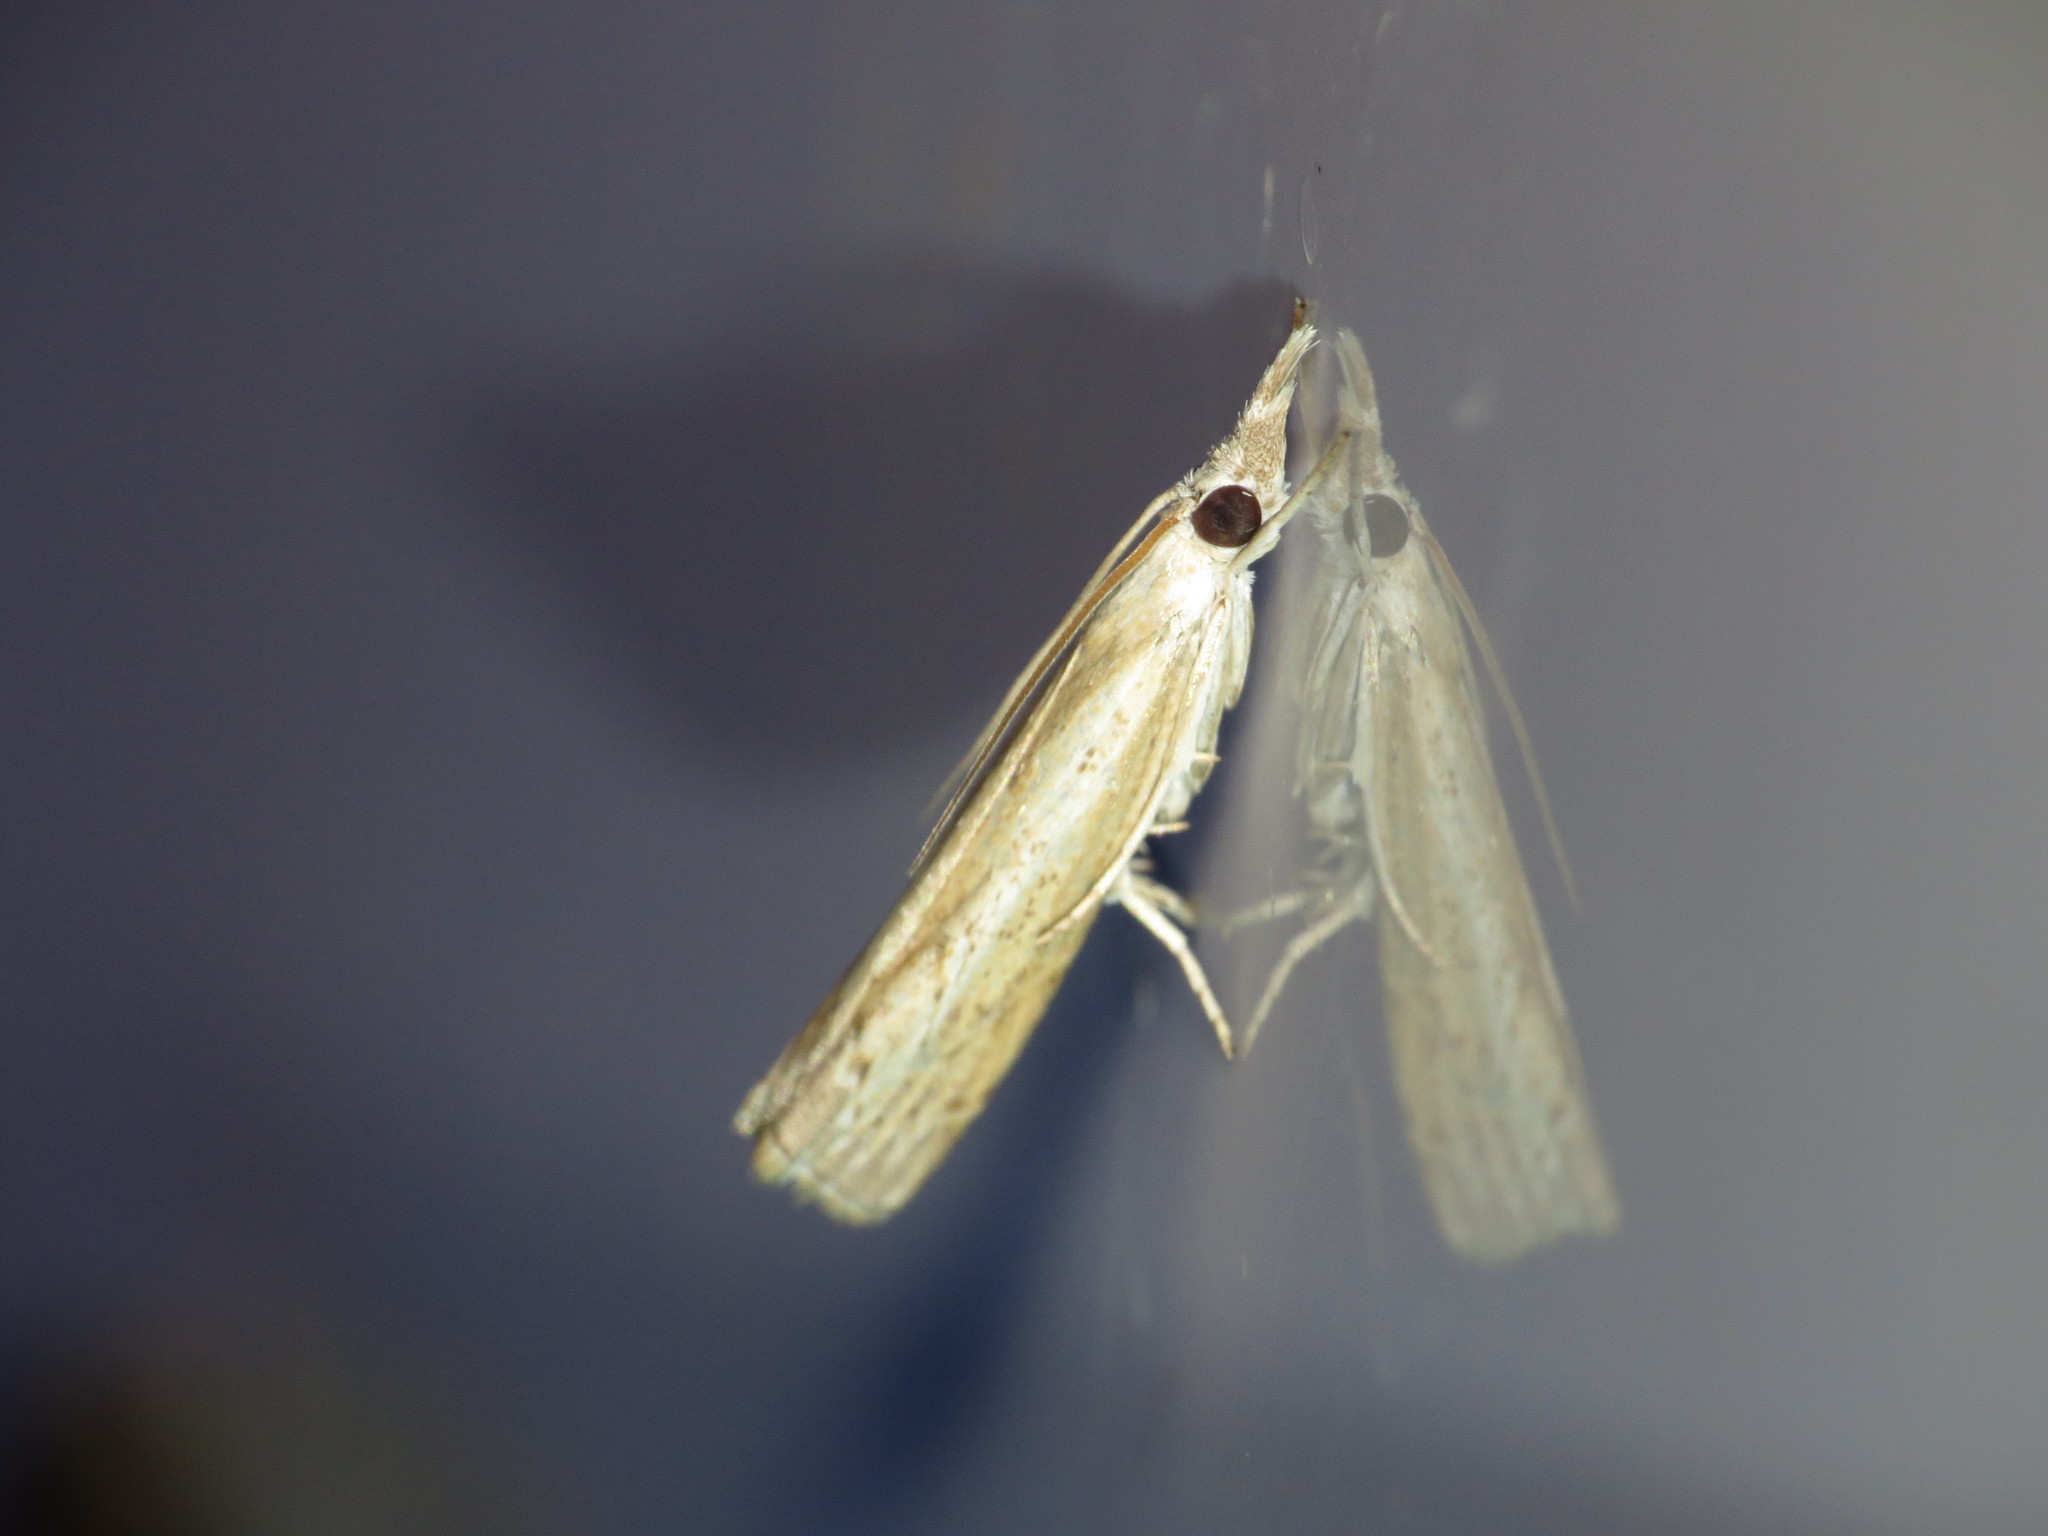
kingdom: Animalia
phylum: Arthropoda
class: Insecta
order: Lepidoptera
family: Crambidae
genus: Culladia
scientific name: Culladia cuneiferellus
